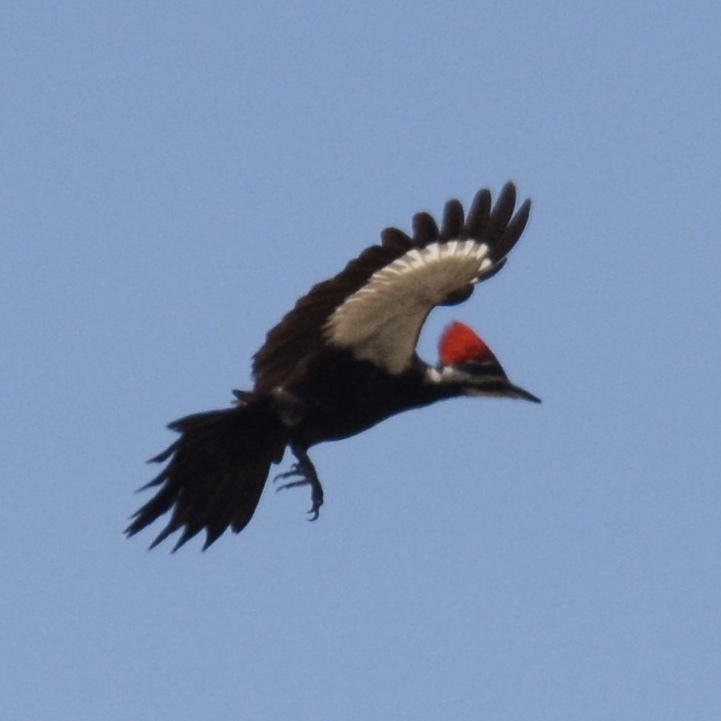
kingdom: Animalia
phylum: Chordata
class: Aves
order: Piciformes
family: Picidae
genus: Dryocopus
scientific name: Dryocopus pileatus
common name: Pileated woodpecker
